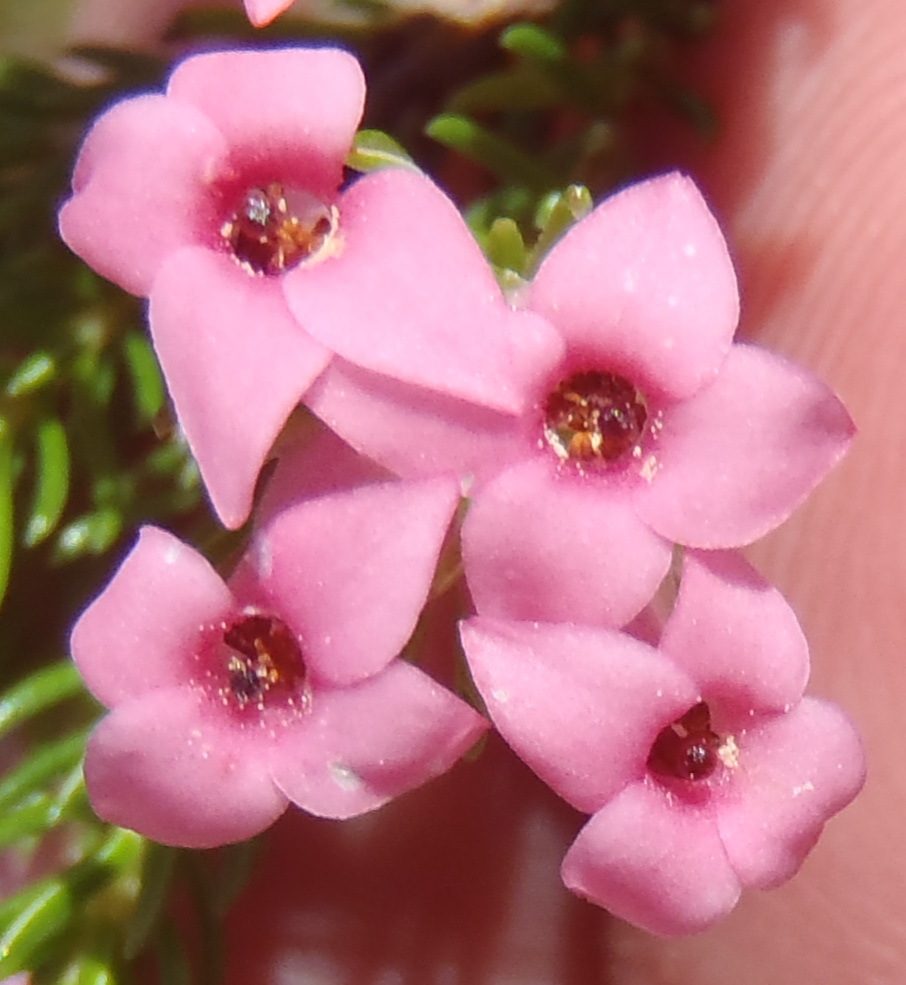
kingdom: Plantae
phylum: Tracheophyta
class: Magnoliopsida
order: Ericales
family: Ericaceae
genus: Erica
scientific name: Erica daphniflora
